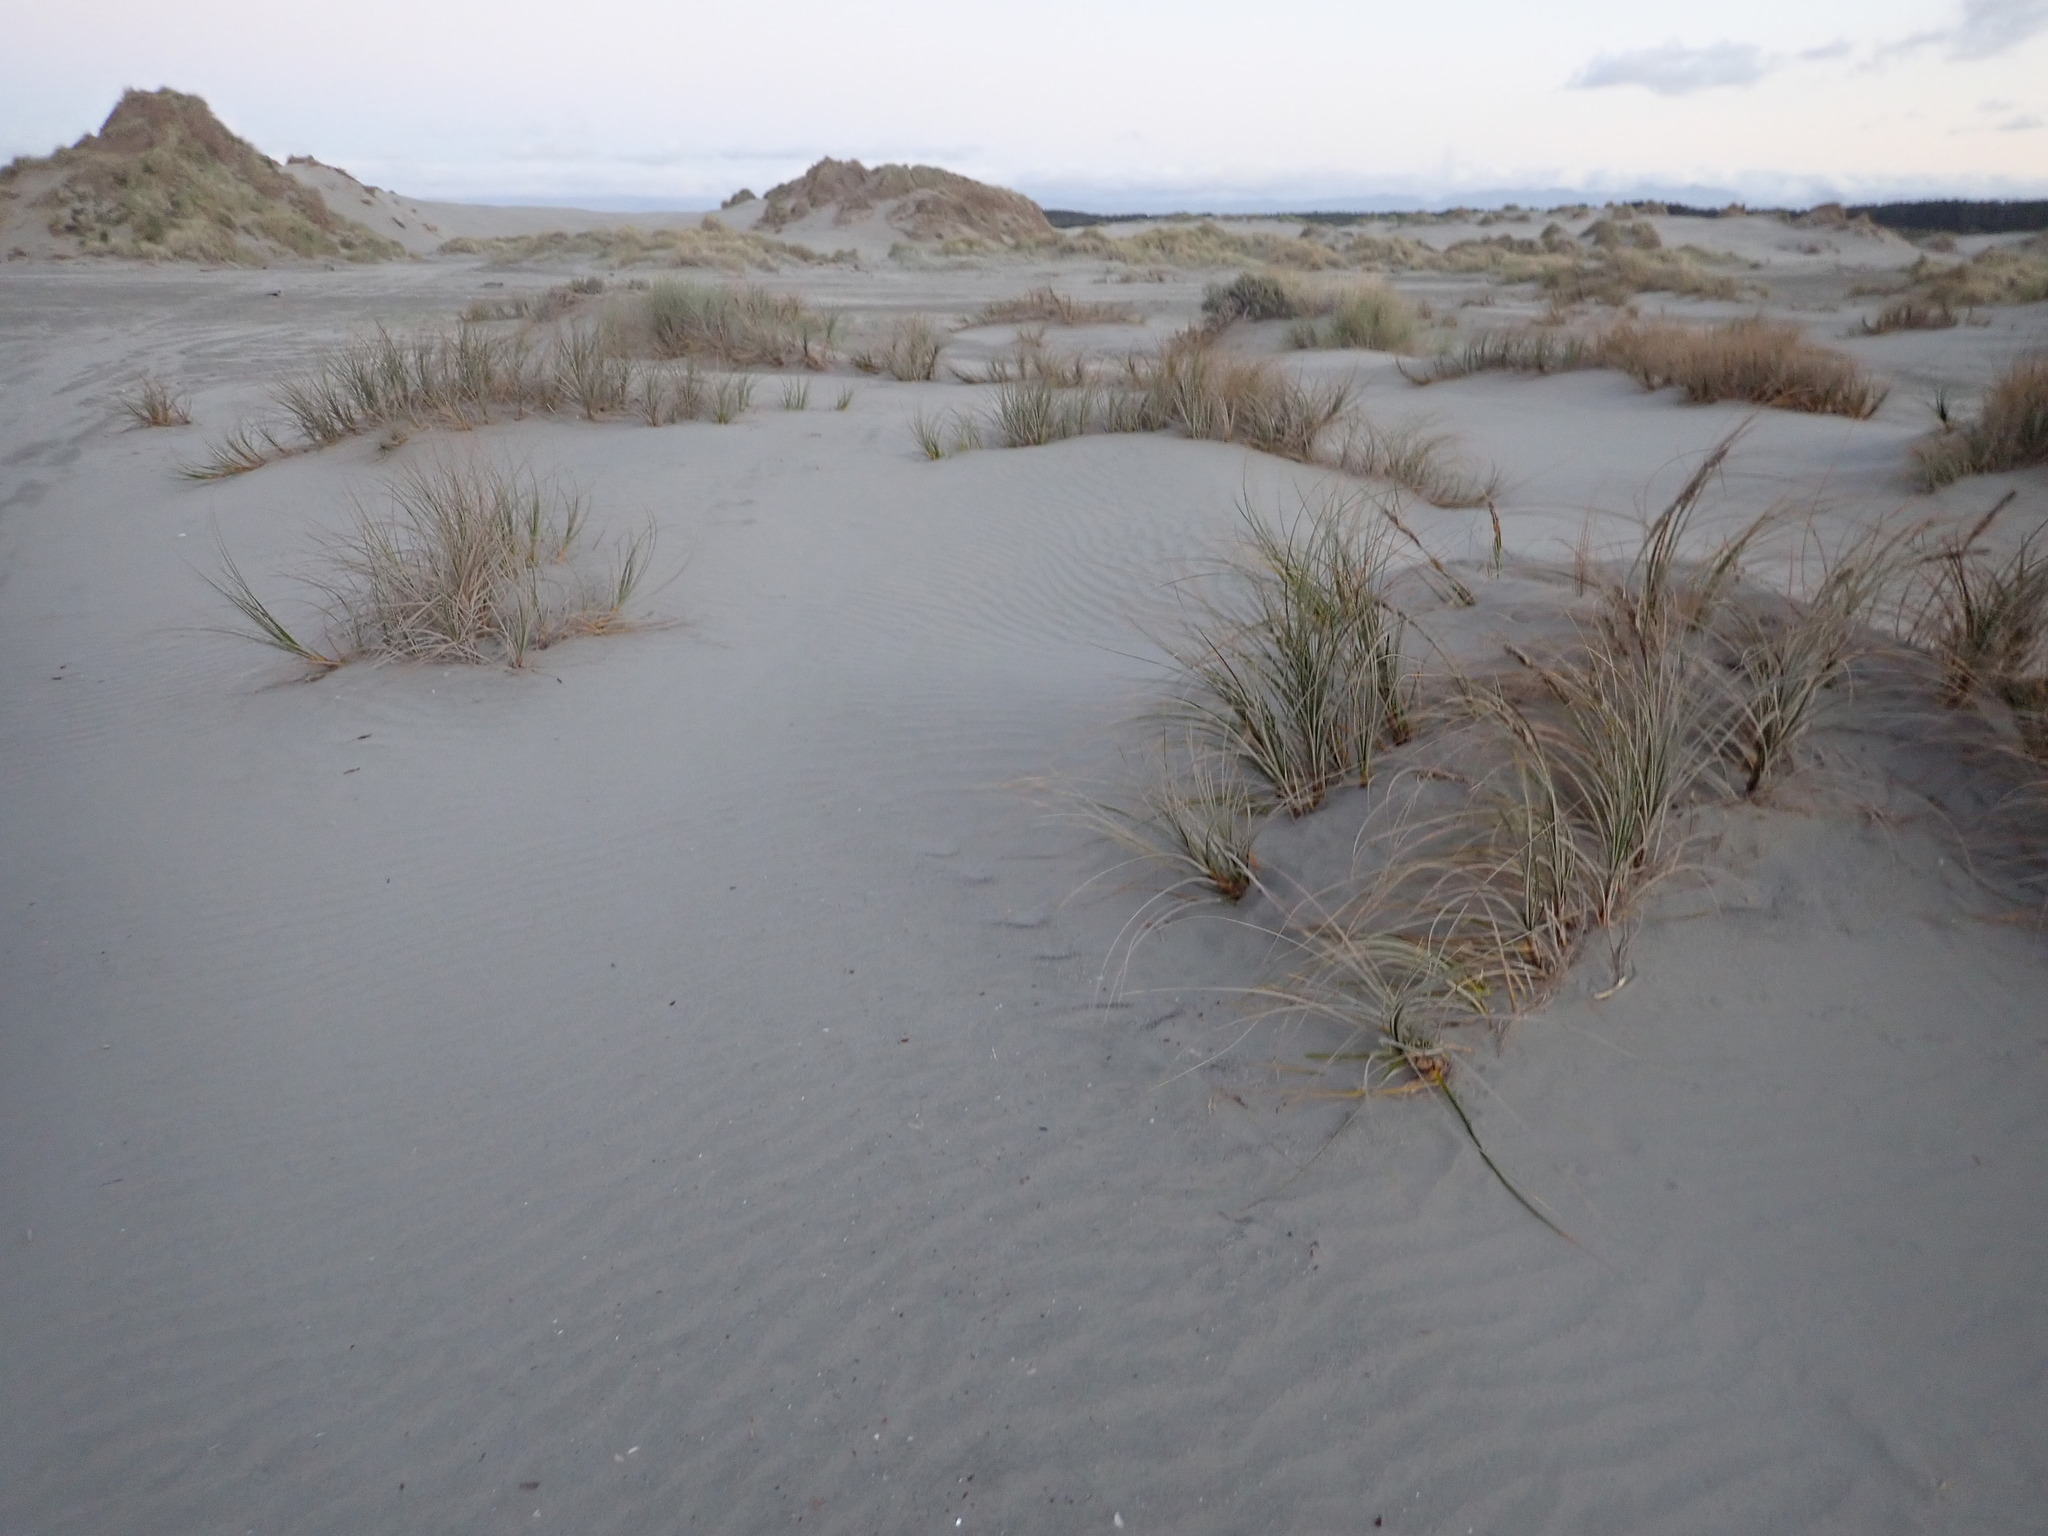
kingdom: Plantae
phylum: Tracheophyta
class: Liliopsida
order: Poales
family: Cyperaceae
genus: Ficinia
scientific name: Ficinia spiralis
